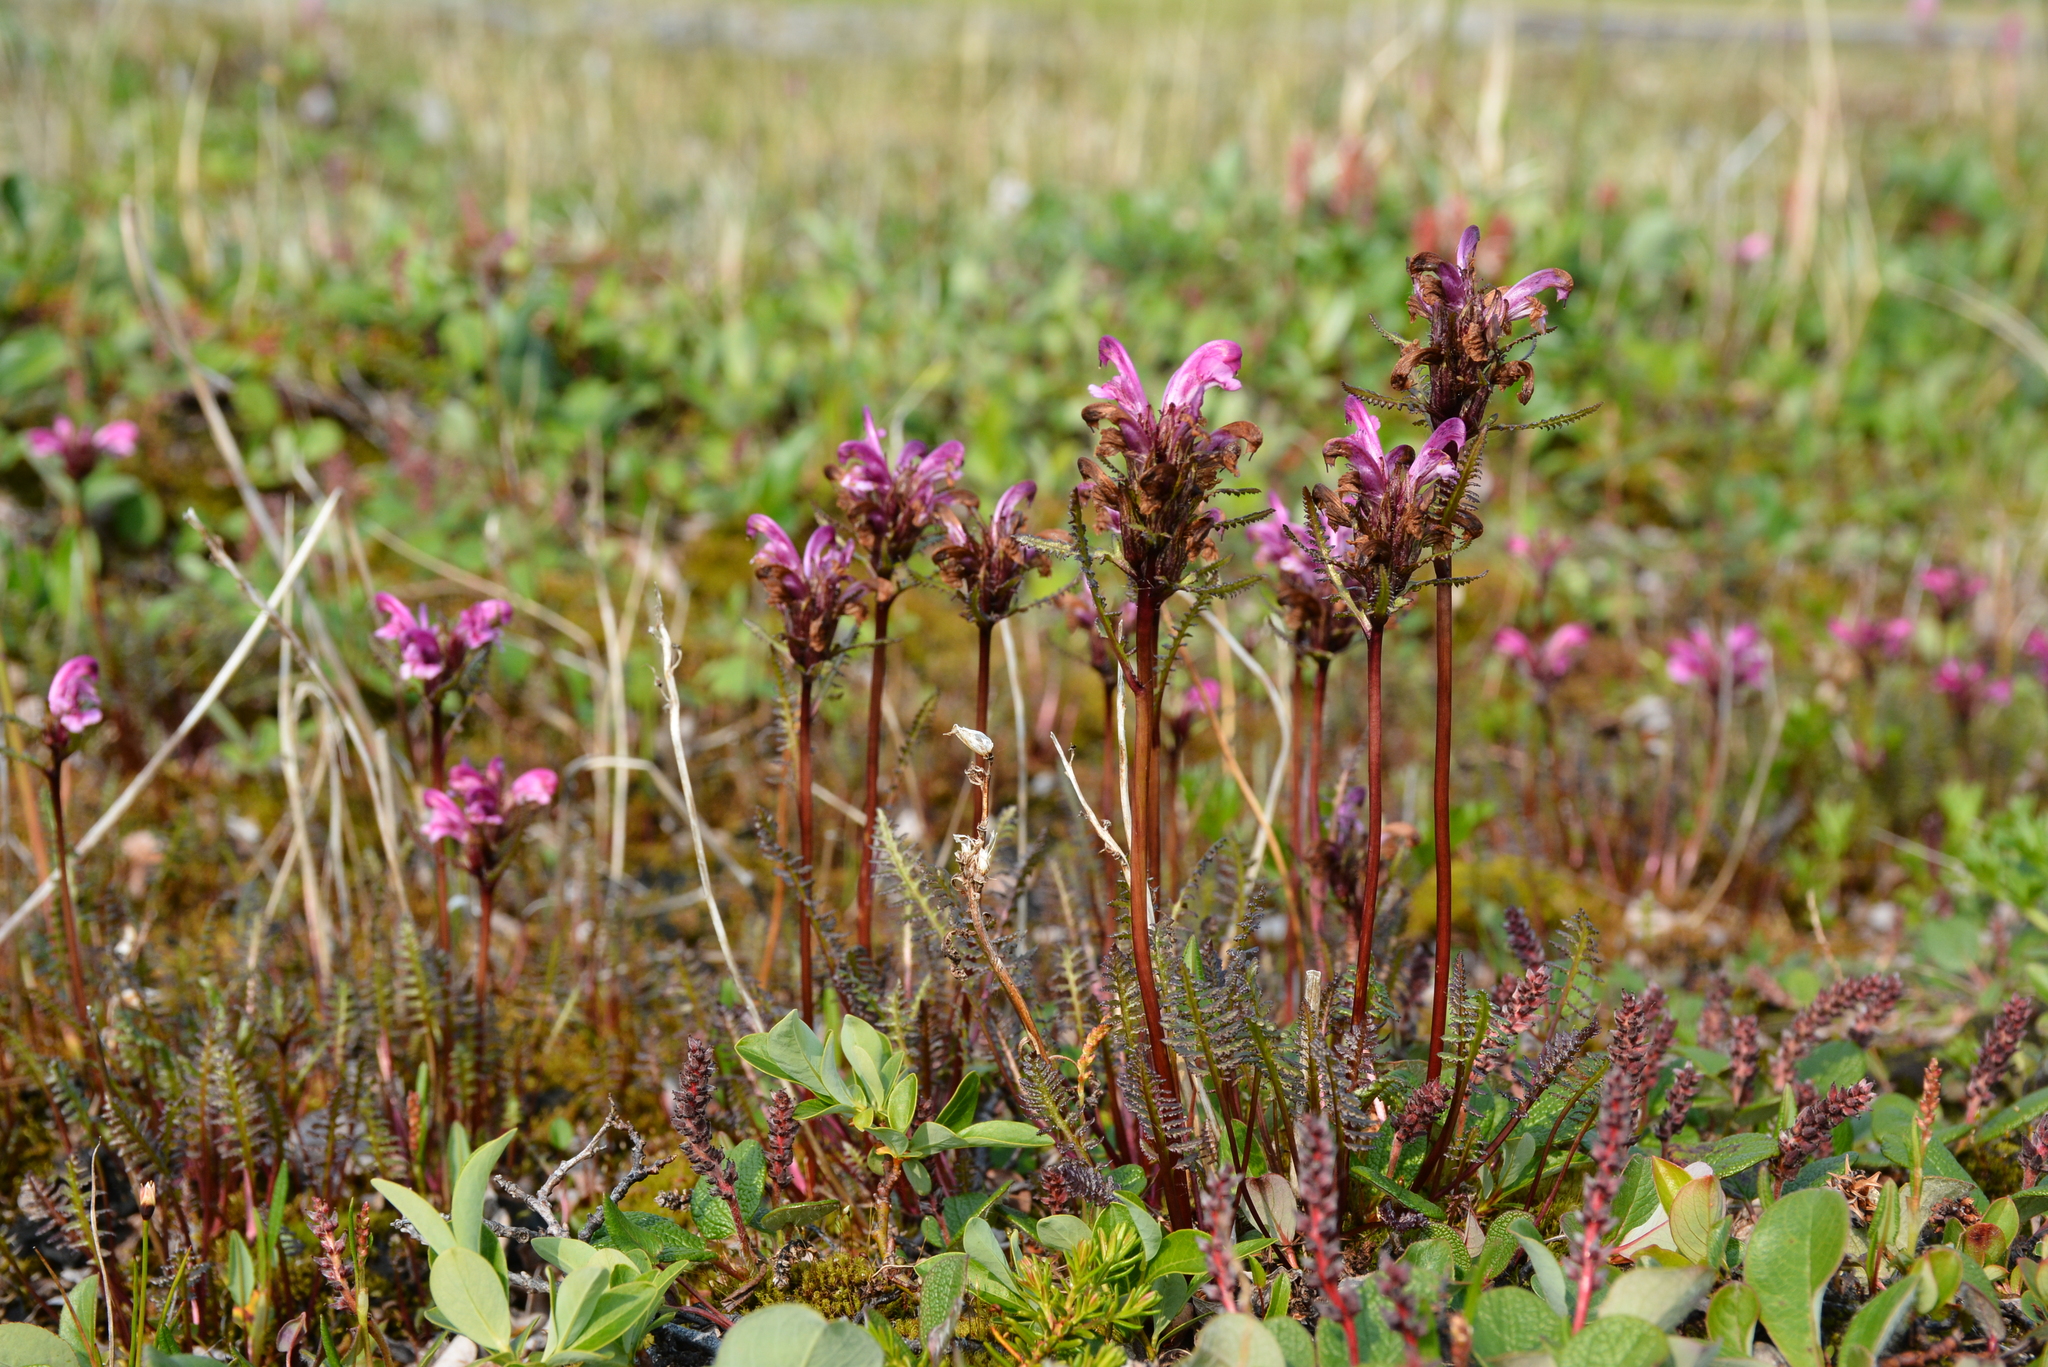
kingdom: Plantae
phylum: Tracheophyta
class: Magnoliopsida
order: Lamiales
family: Orobanchaceae
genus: Pedicularis
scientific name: Pedicularis sudetica
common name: Sudeten lousewort
